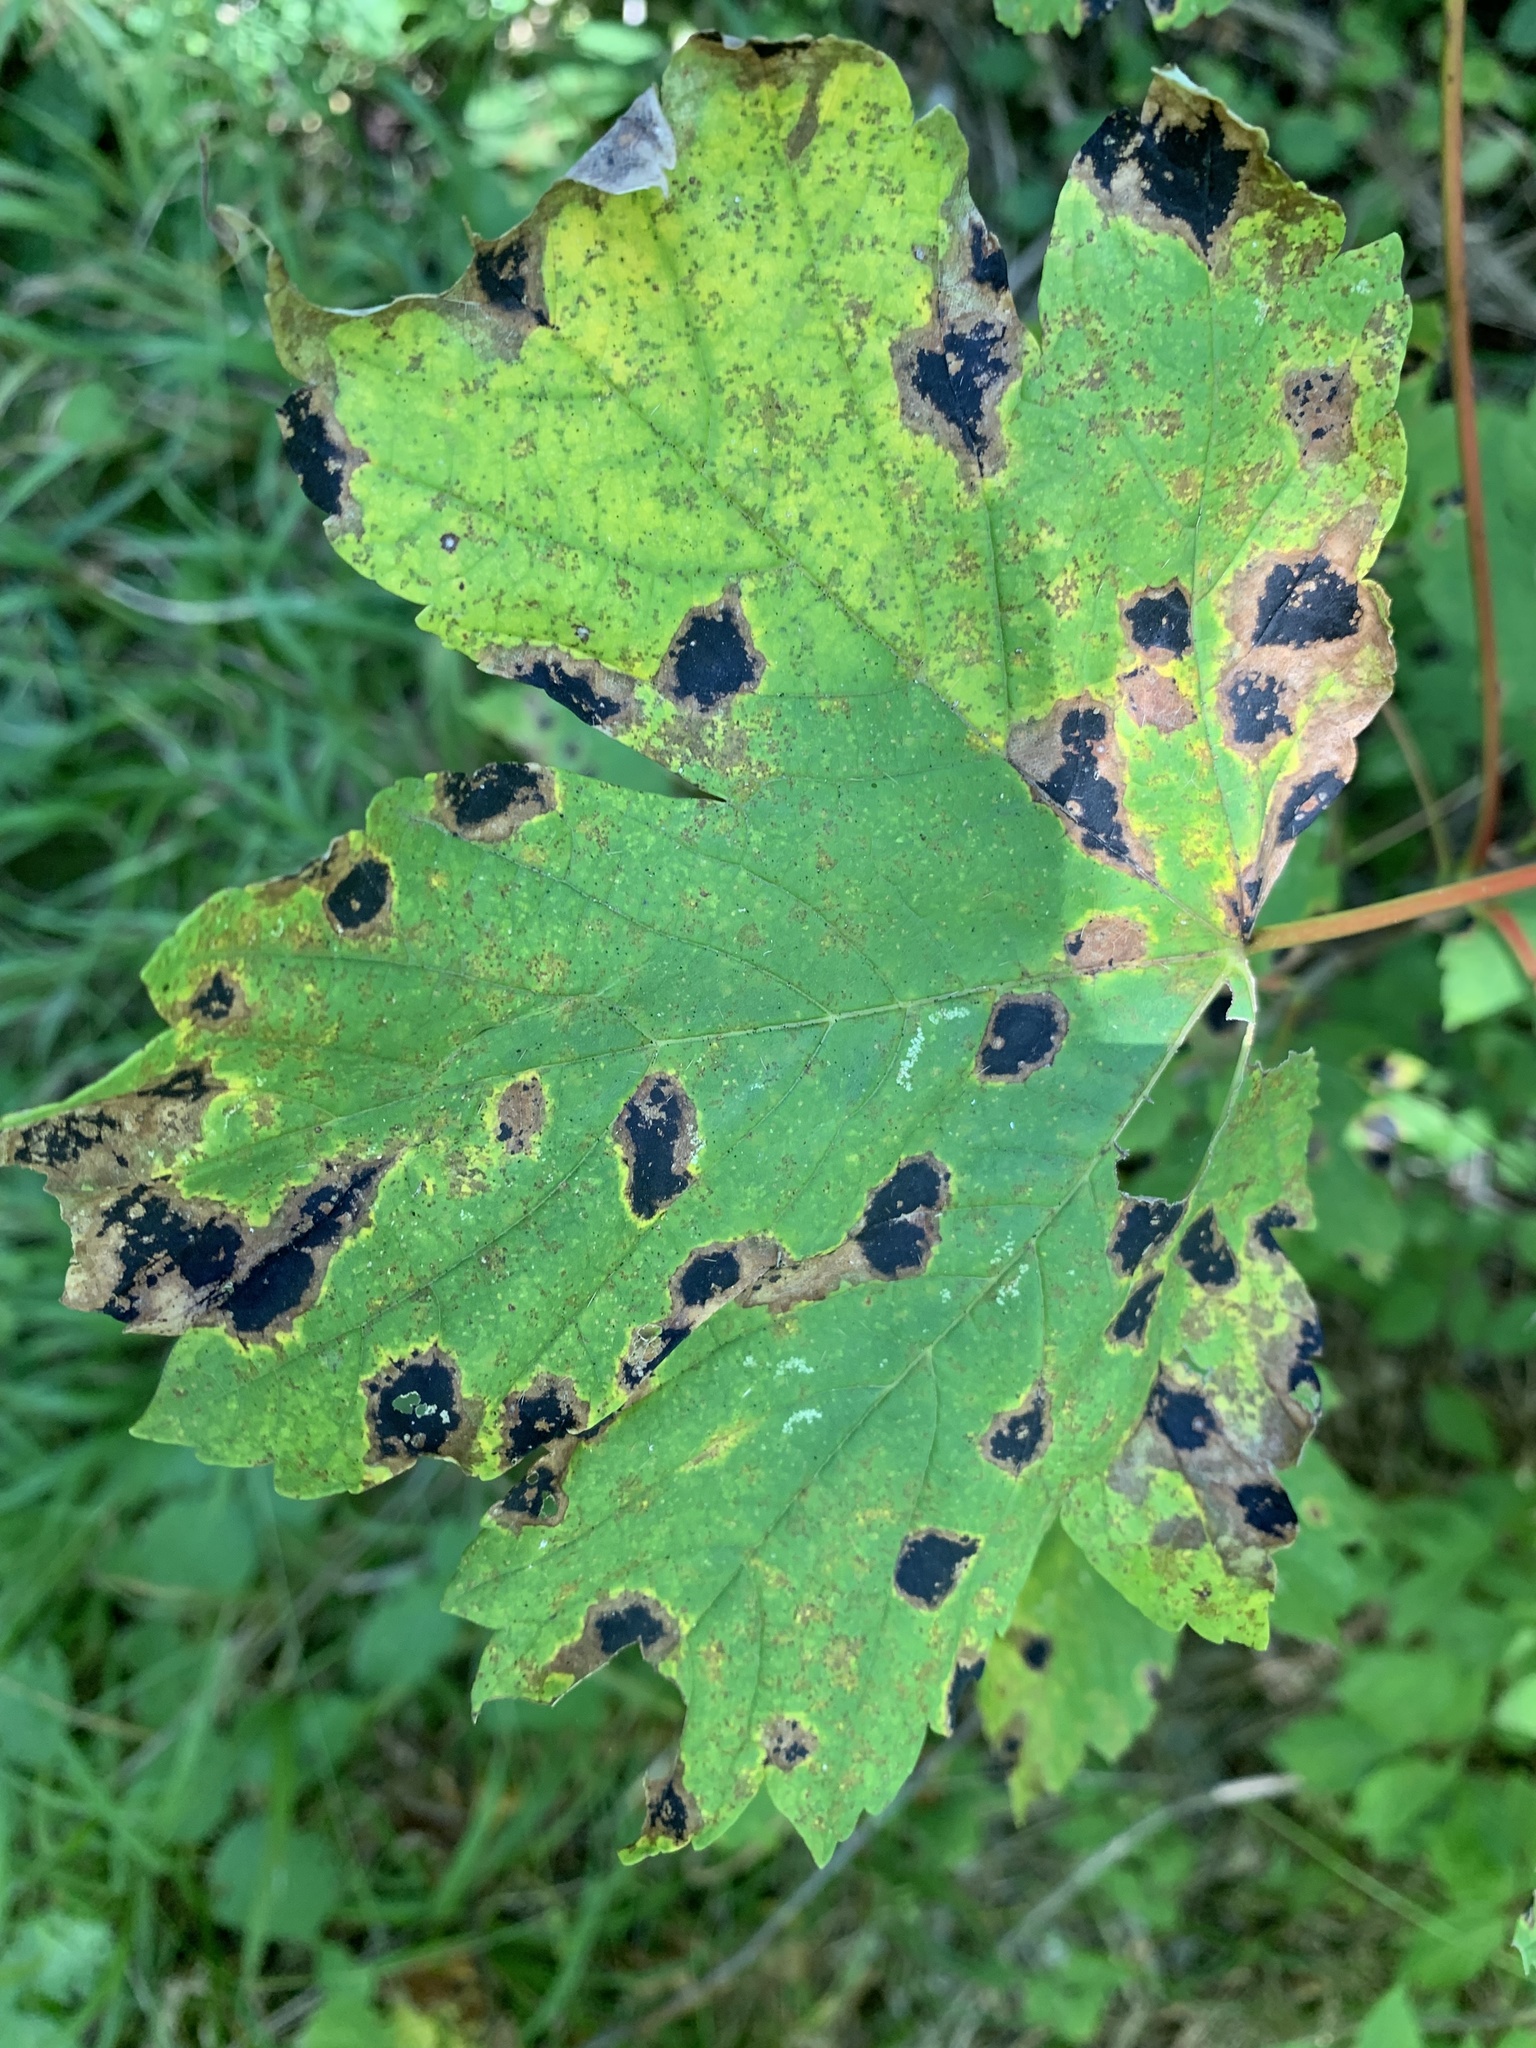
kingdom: Fungi
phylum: Ascomycota
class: Leotiomycetes
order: Rhytismatales
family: Rhytismataceae
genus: Rhytisma
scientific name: Rhytisma acerinum
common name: European tar spot
